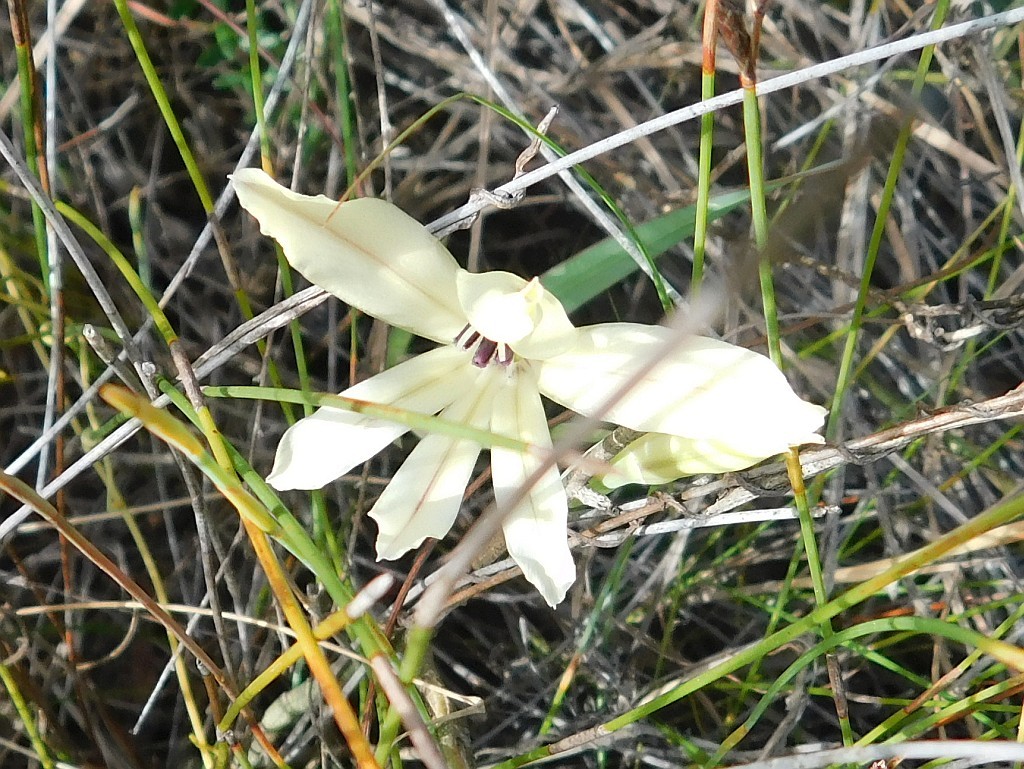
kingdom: Plantae
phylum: Tracheophyta
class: Liliopsida
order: Asparagales
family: Iridaceae
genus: Gladiolus
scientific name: Gladiolus floribundus
